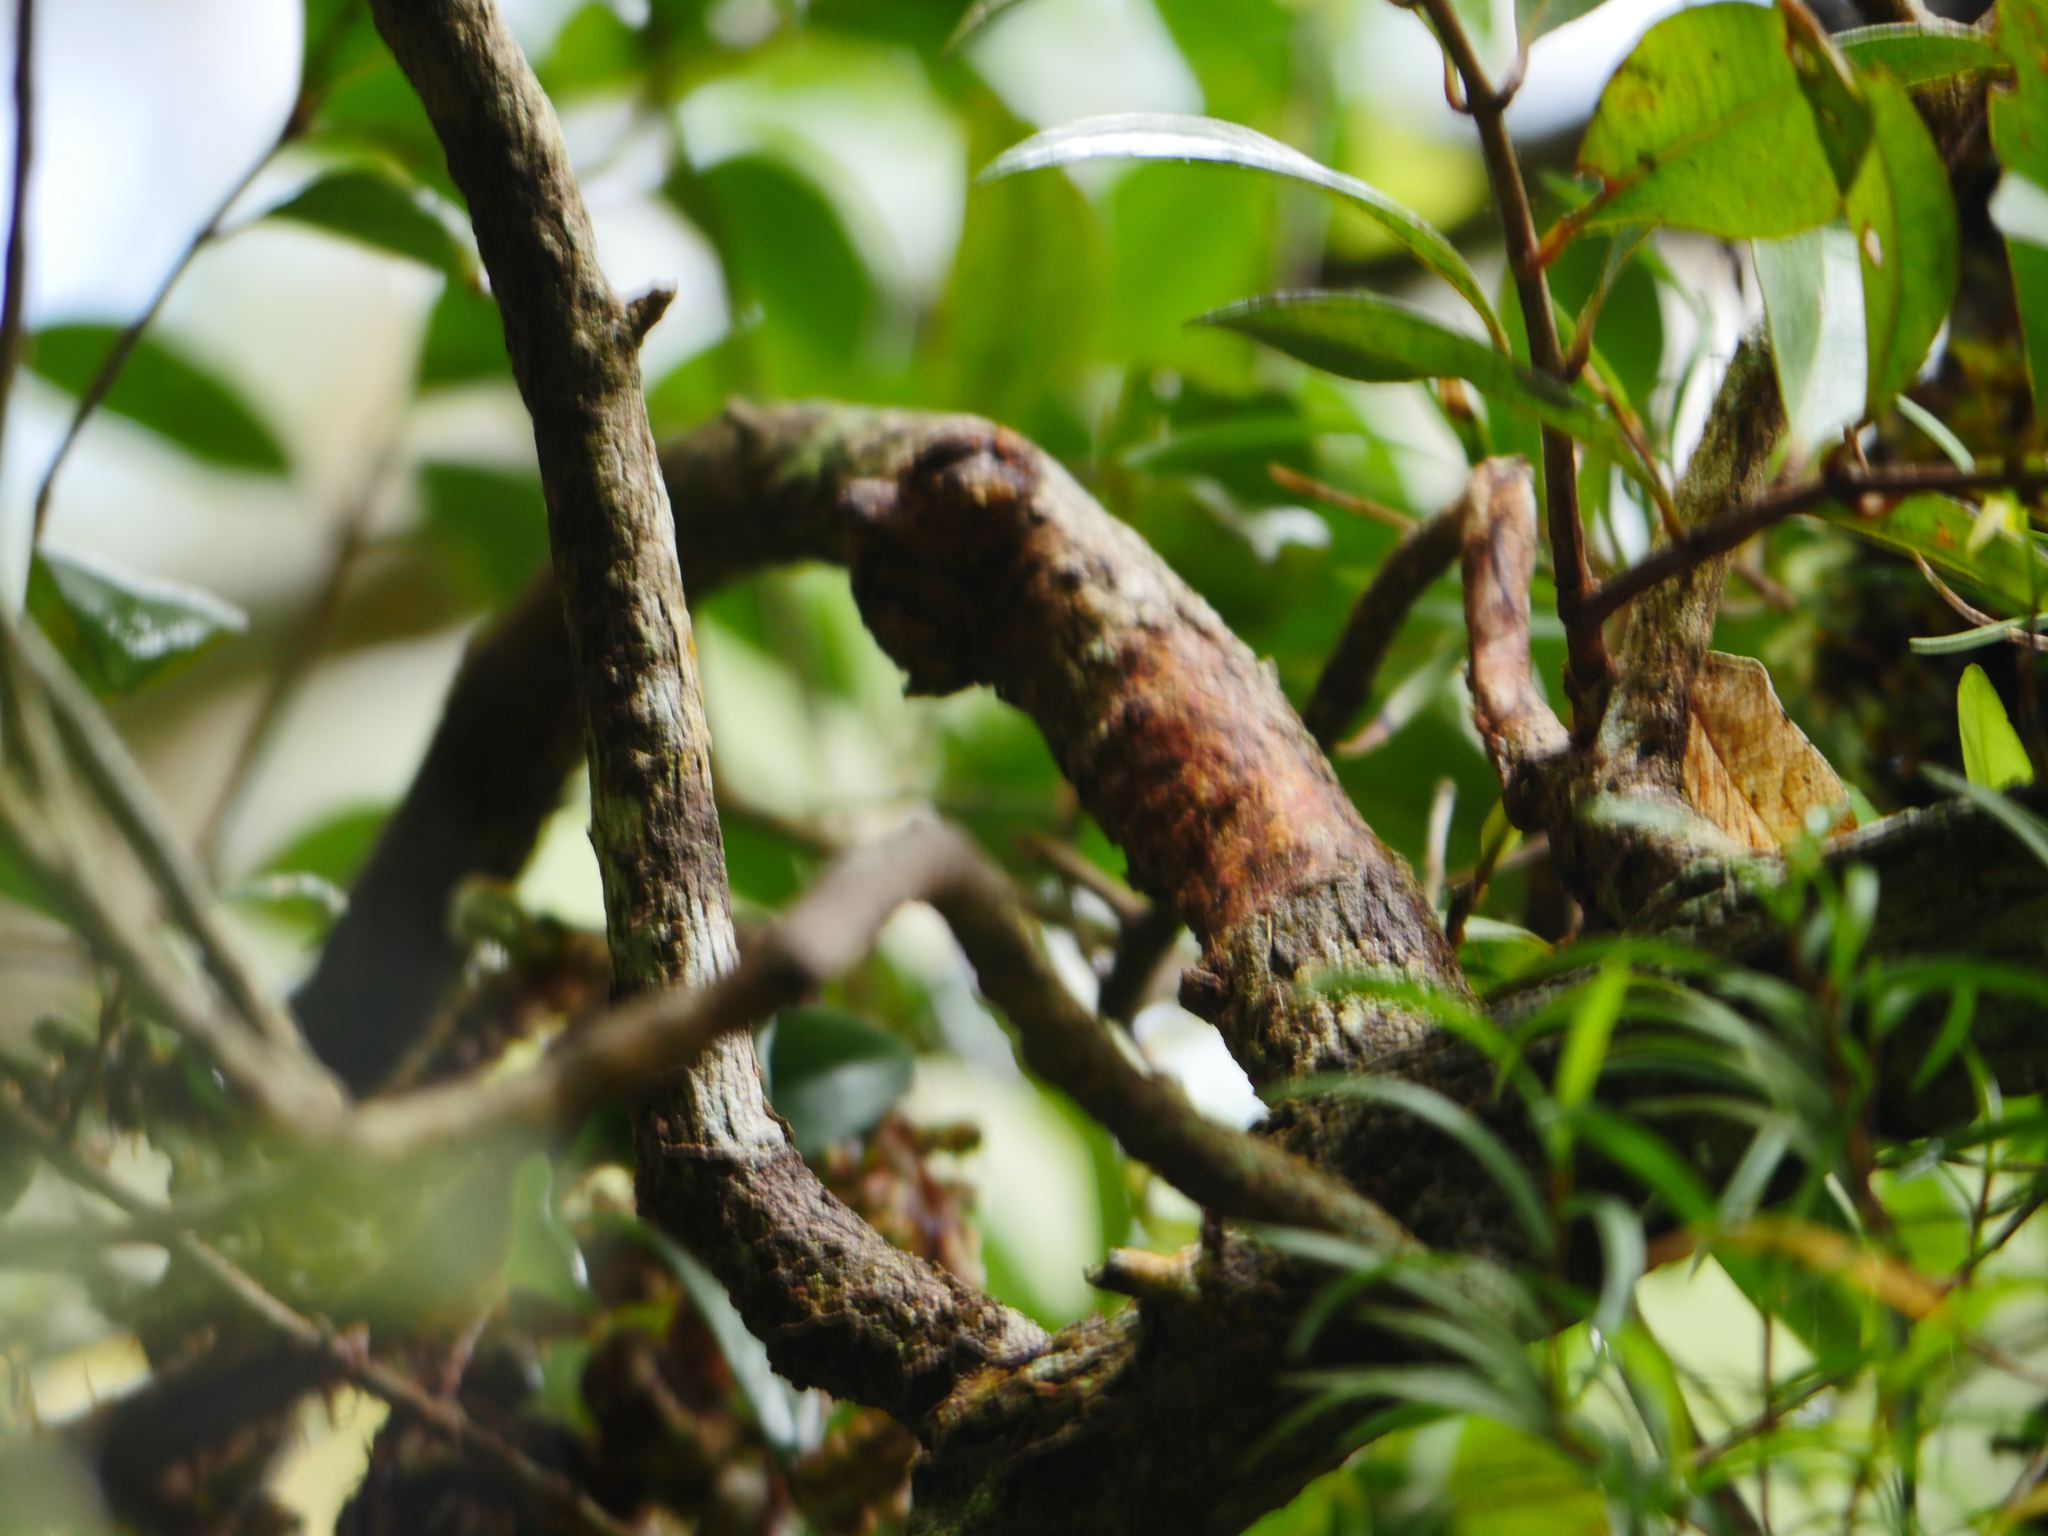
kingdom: Plantae
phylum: Tracheophyta
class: Magnoliopsida
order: Myrtales
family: Myrtaceae
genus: Metrosideros
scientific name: Metrosideros fulgens
